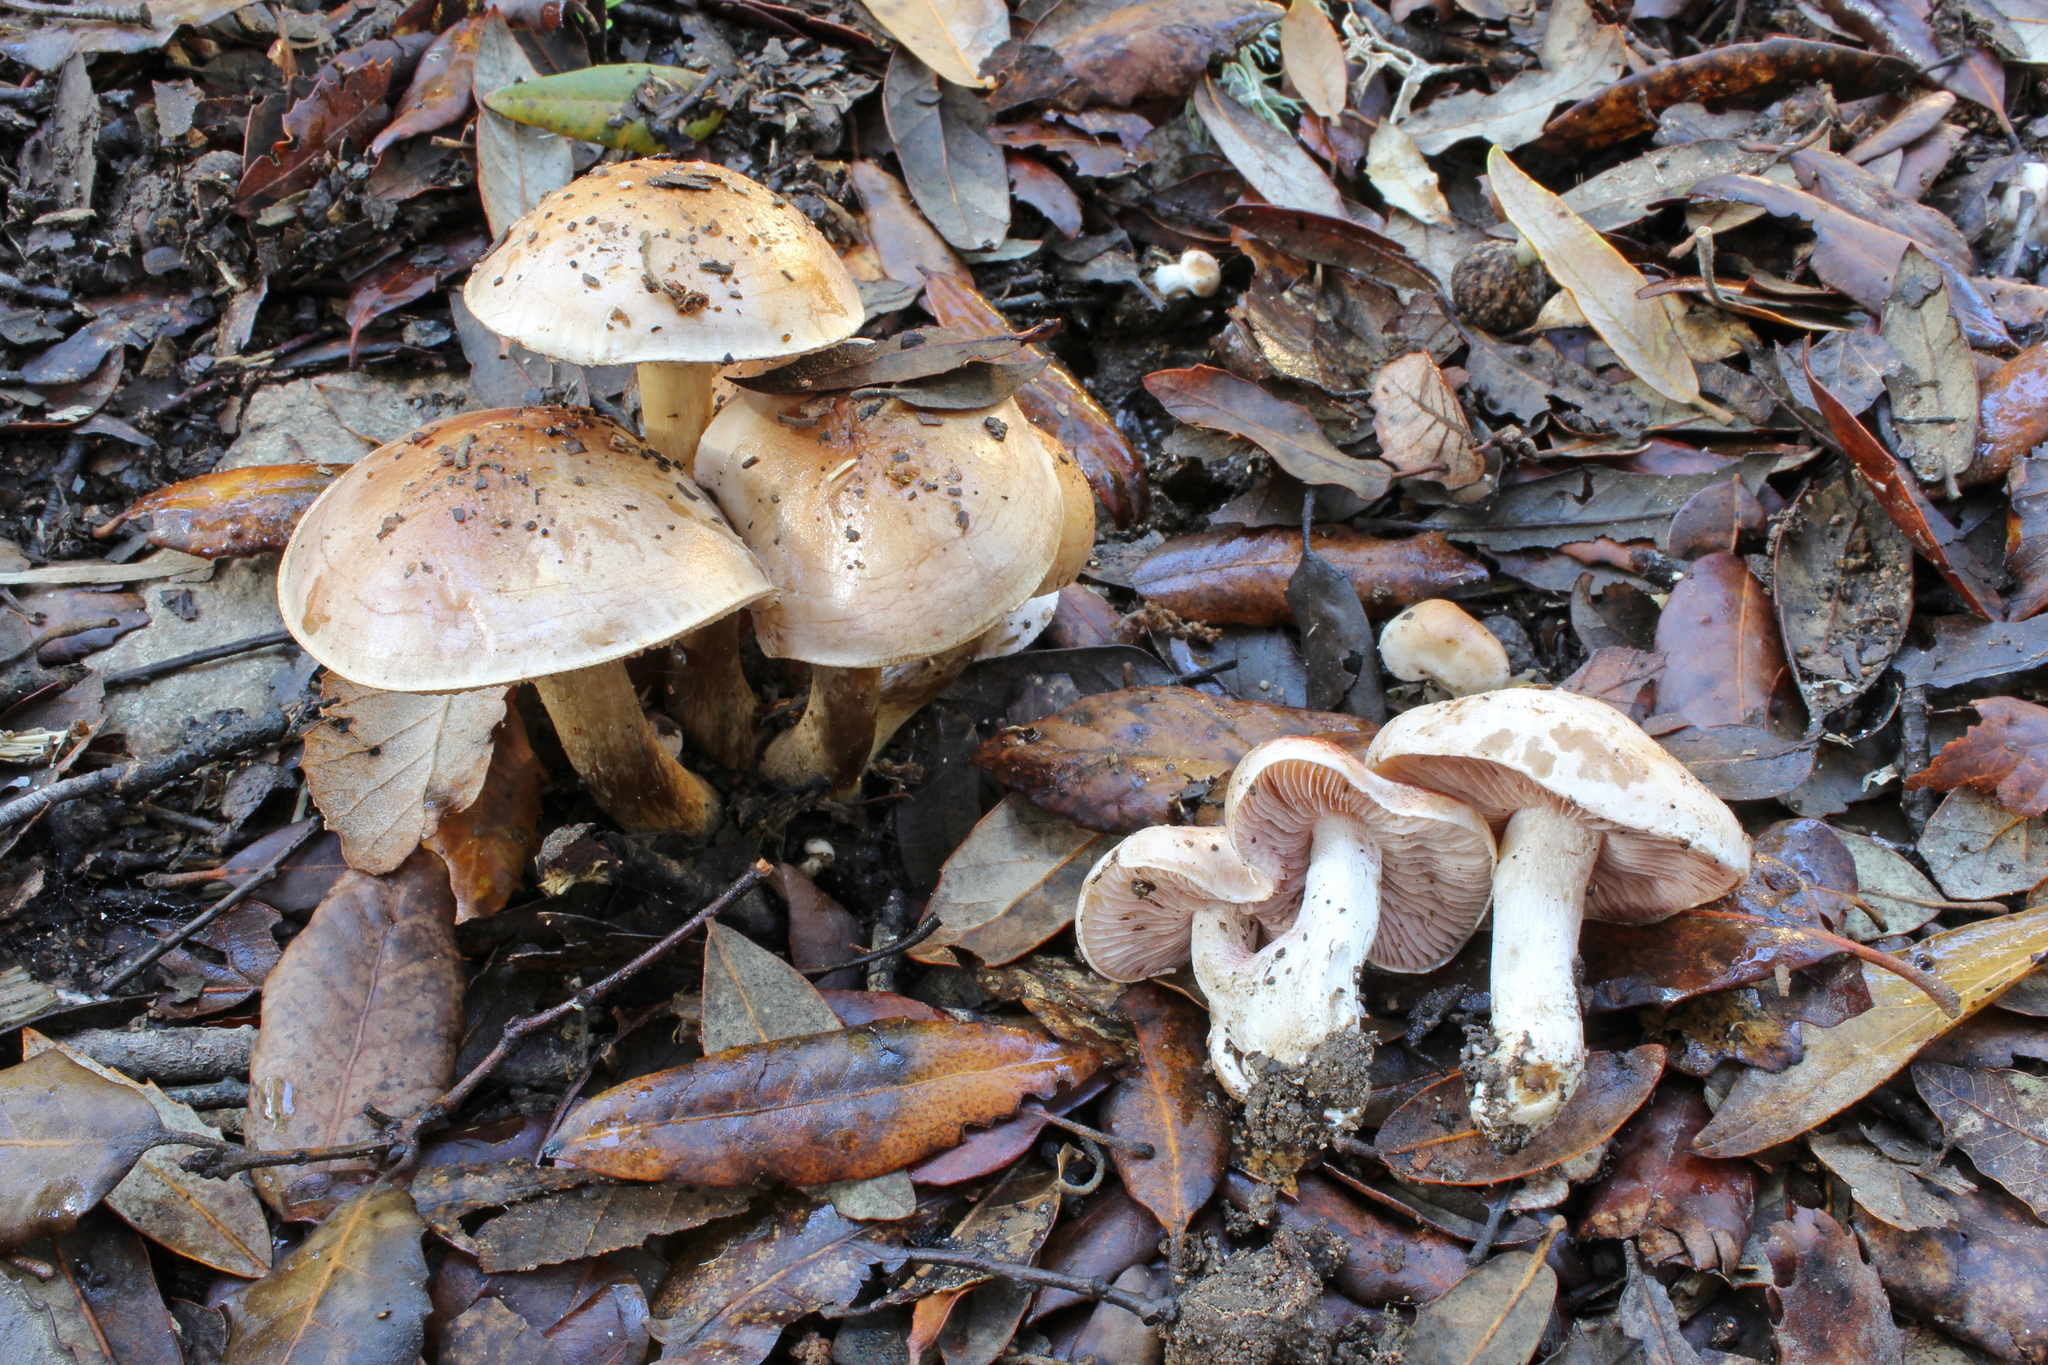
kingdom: Fungi
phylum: Basidiomycota
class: Agaricomycetes
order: Agaricales
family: Hymenogastraceae
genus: Hebeloma
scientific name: Hebeloma sarcophyllum
